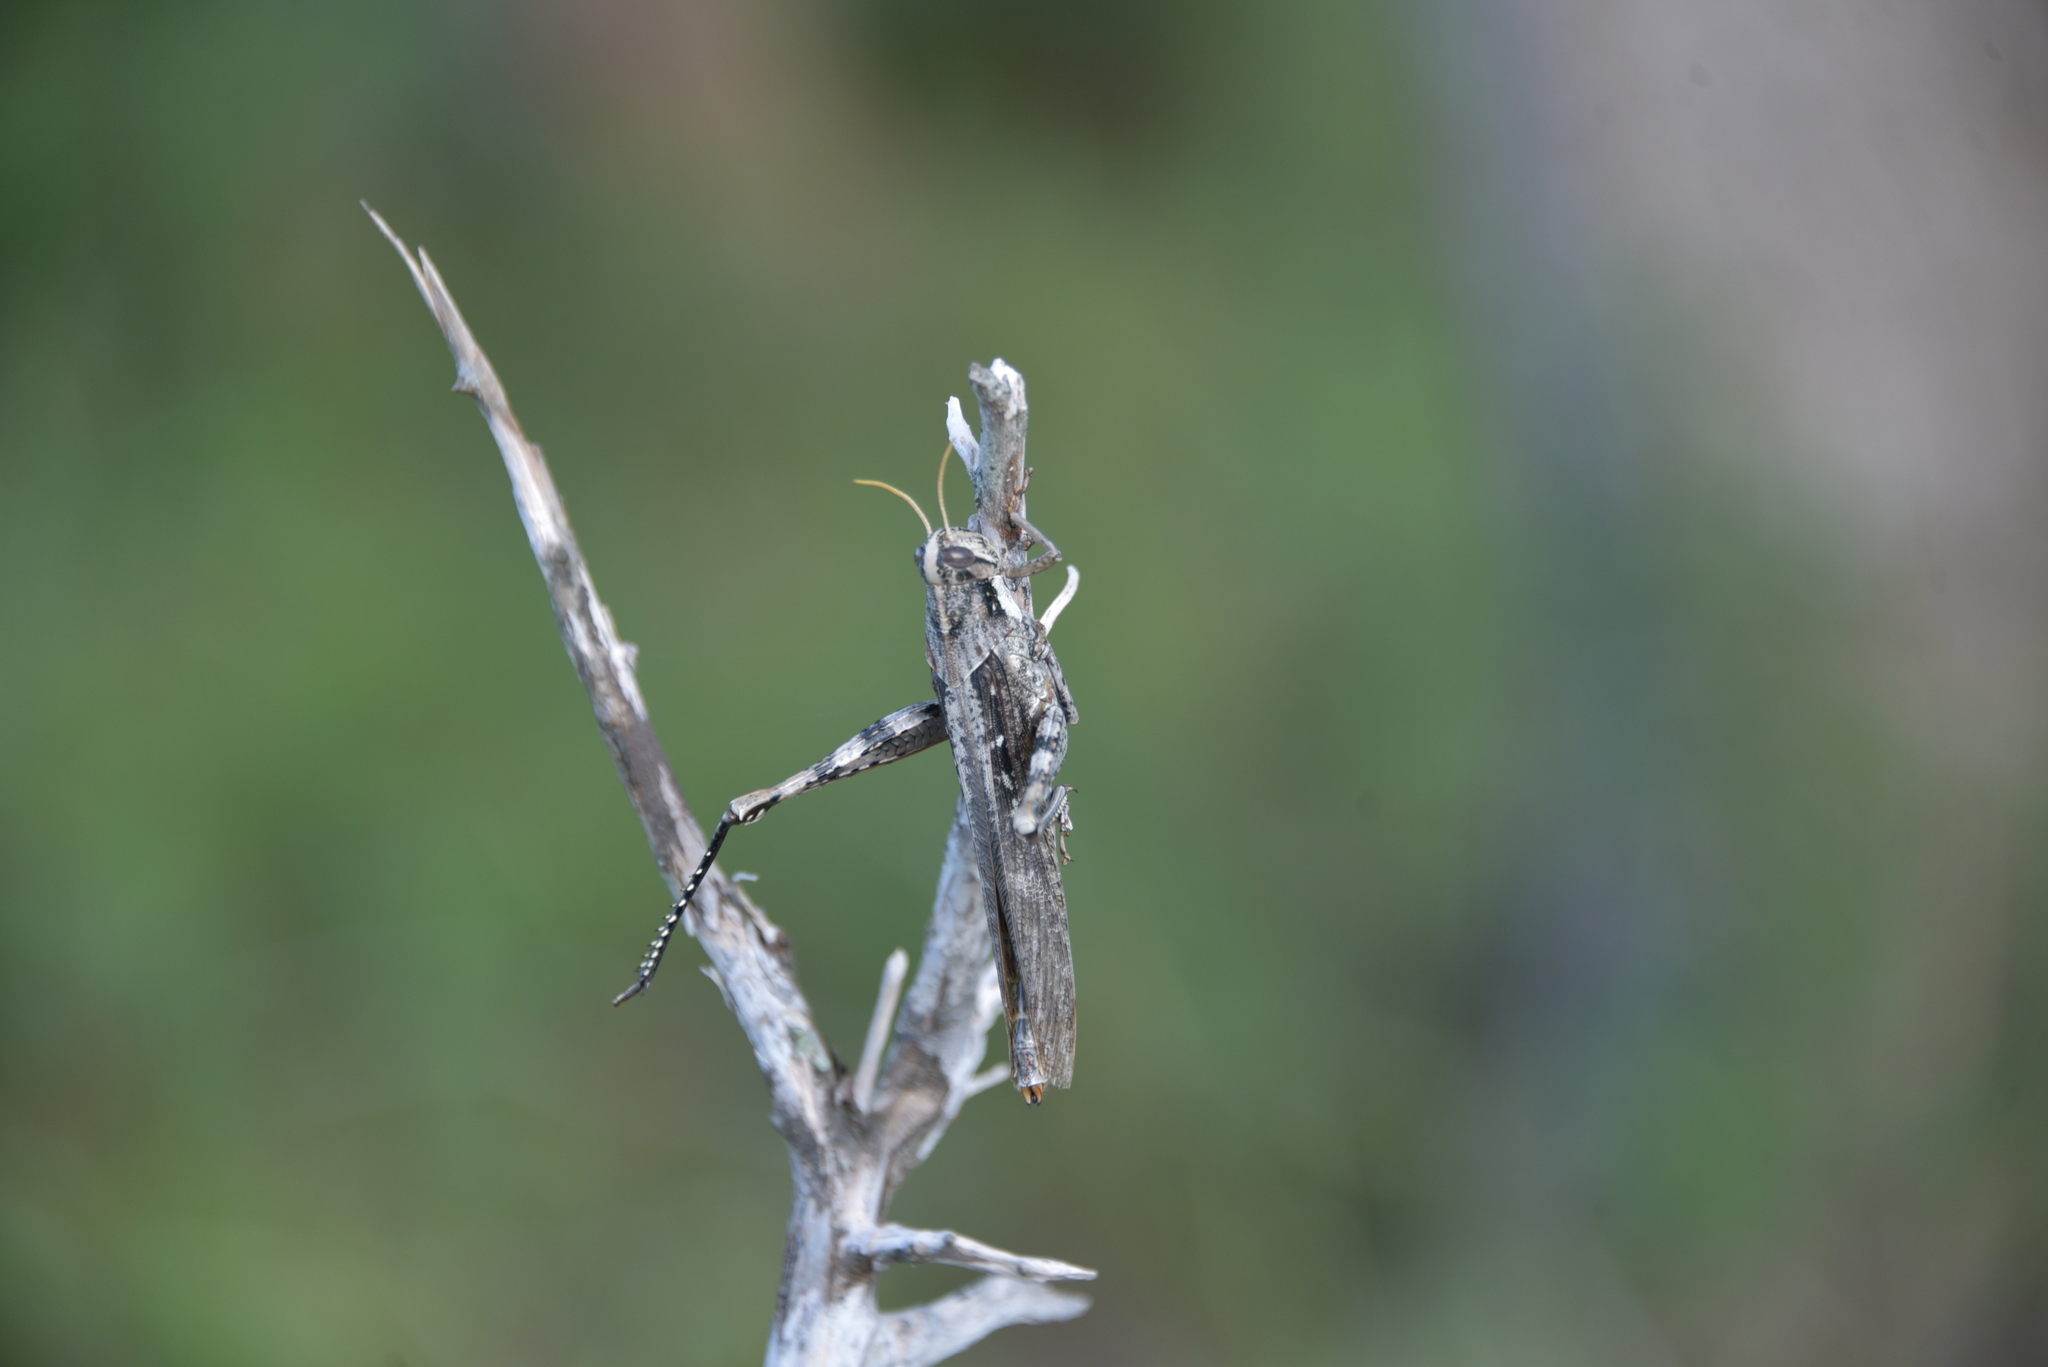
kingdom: Animalia
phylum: Arthropoda
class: Insecta
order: Orthoptera
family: Acrididae
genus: Schistocerca
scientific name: Schistocerca nitens
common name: Vagrant grasshopper
